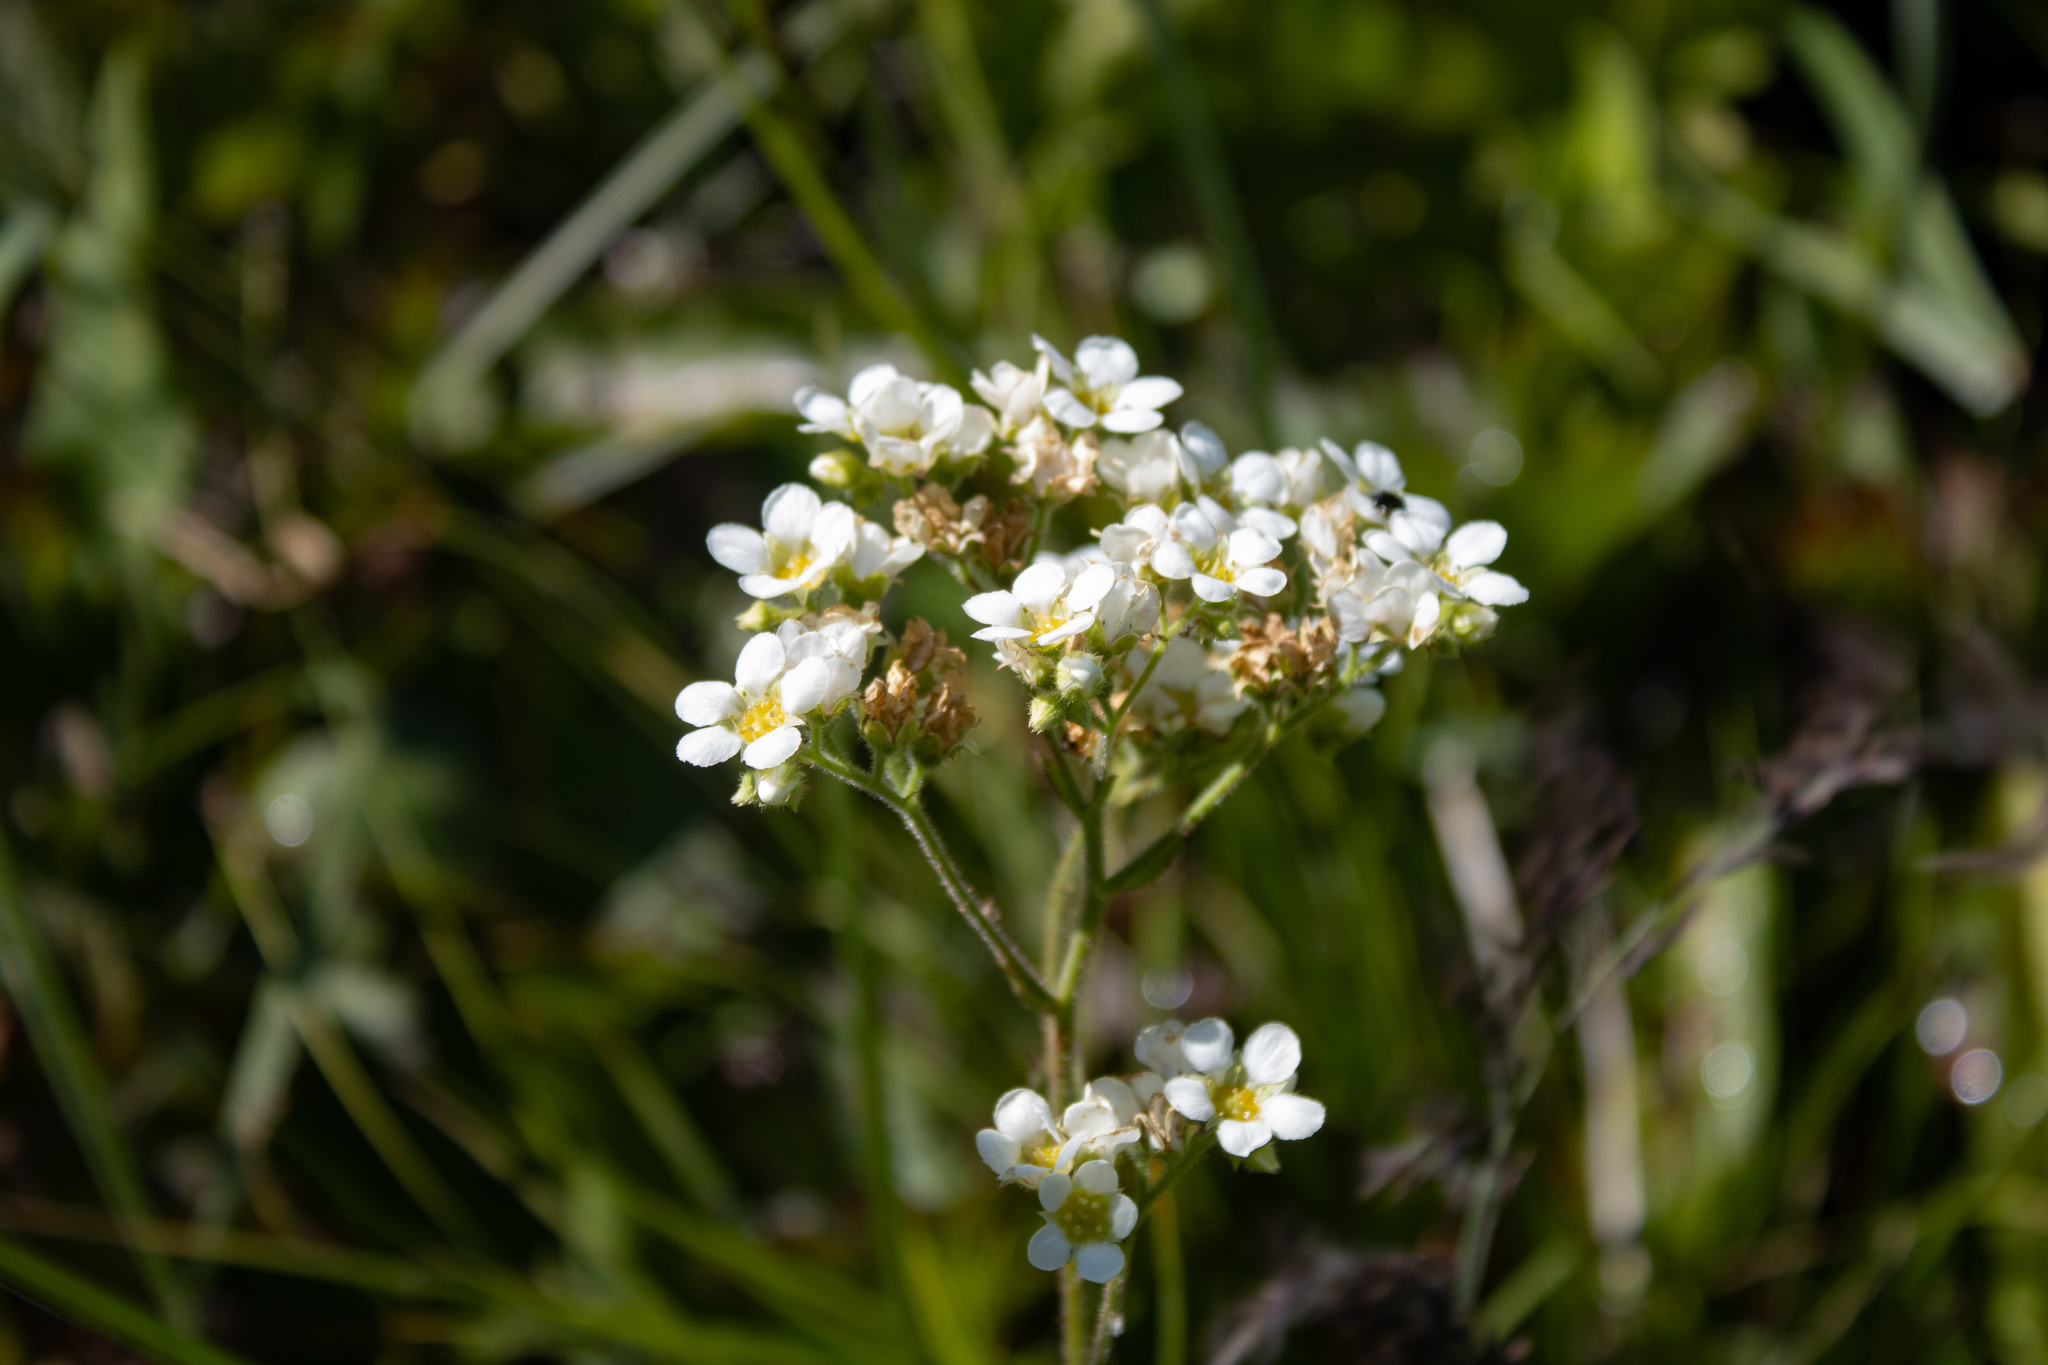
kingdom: Plantae
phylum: Tracheophyta
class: Magnoliopsida
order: Saxifragales
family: Saxifragaceae
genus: Boykinia
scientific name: Boykinia major
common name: Large boykinia
